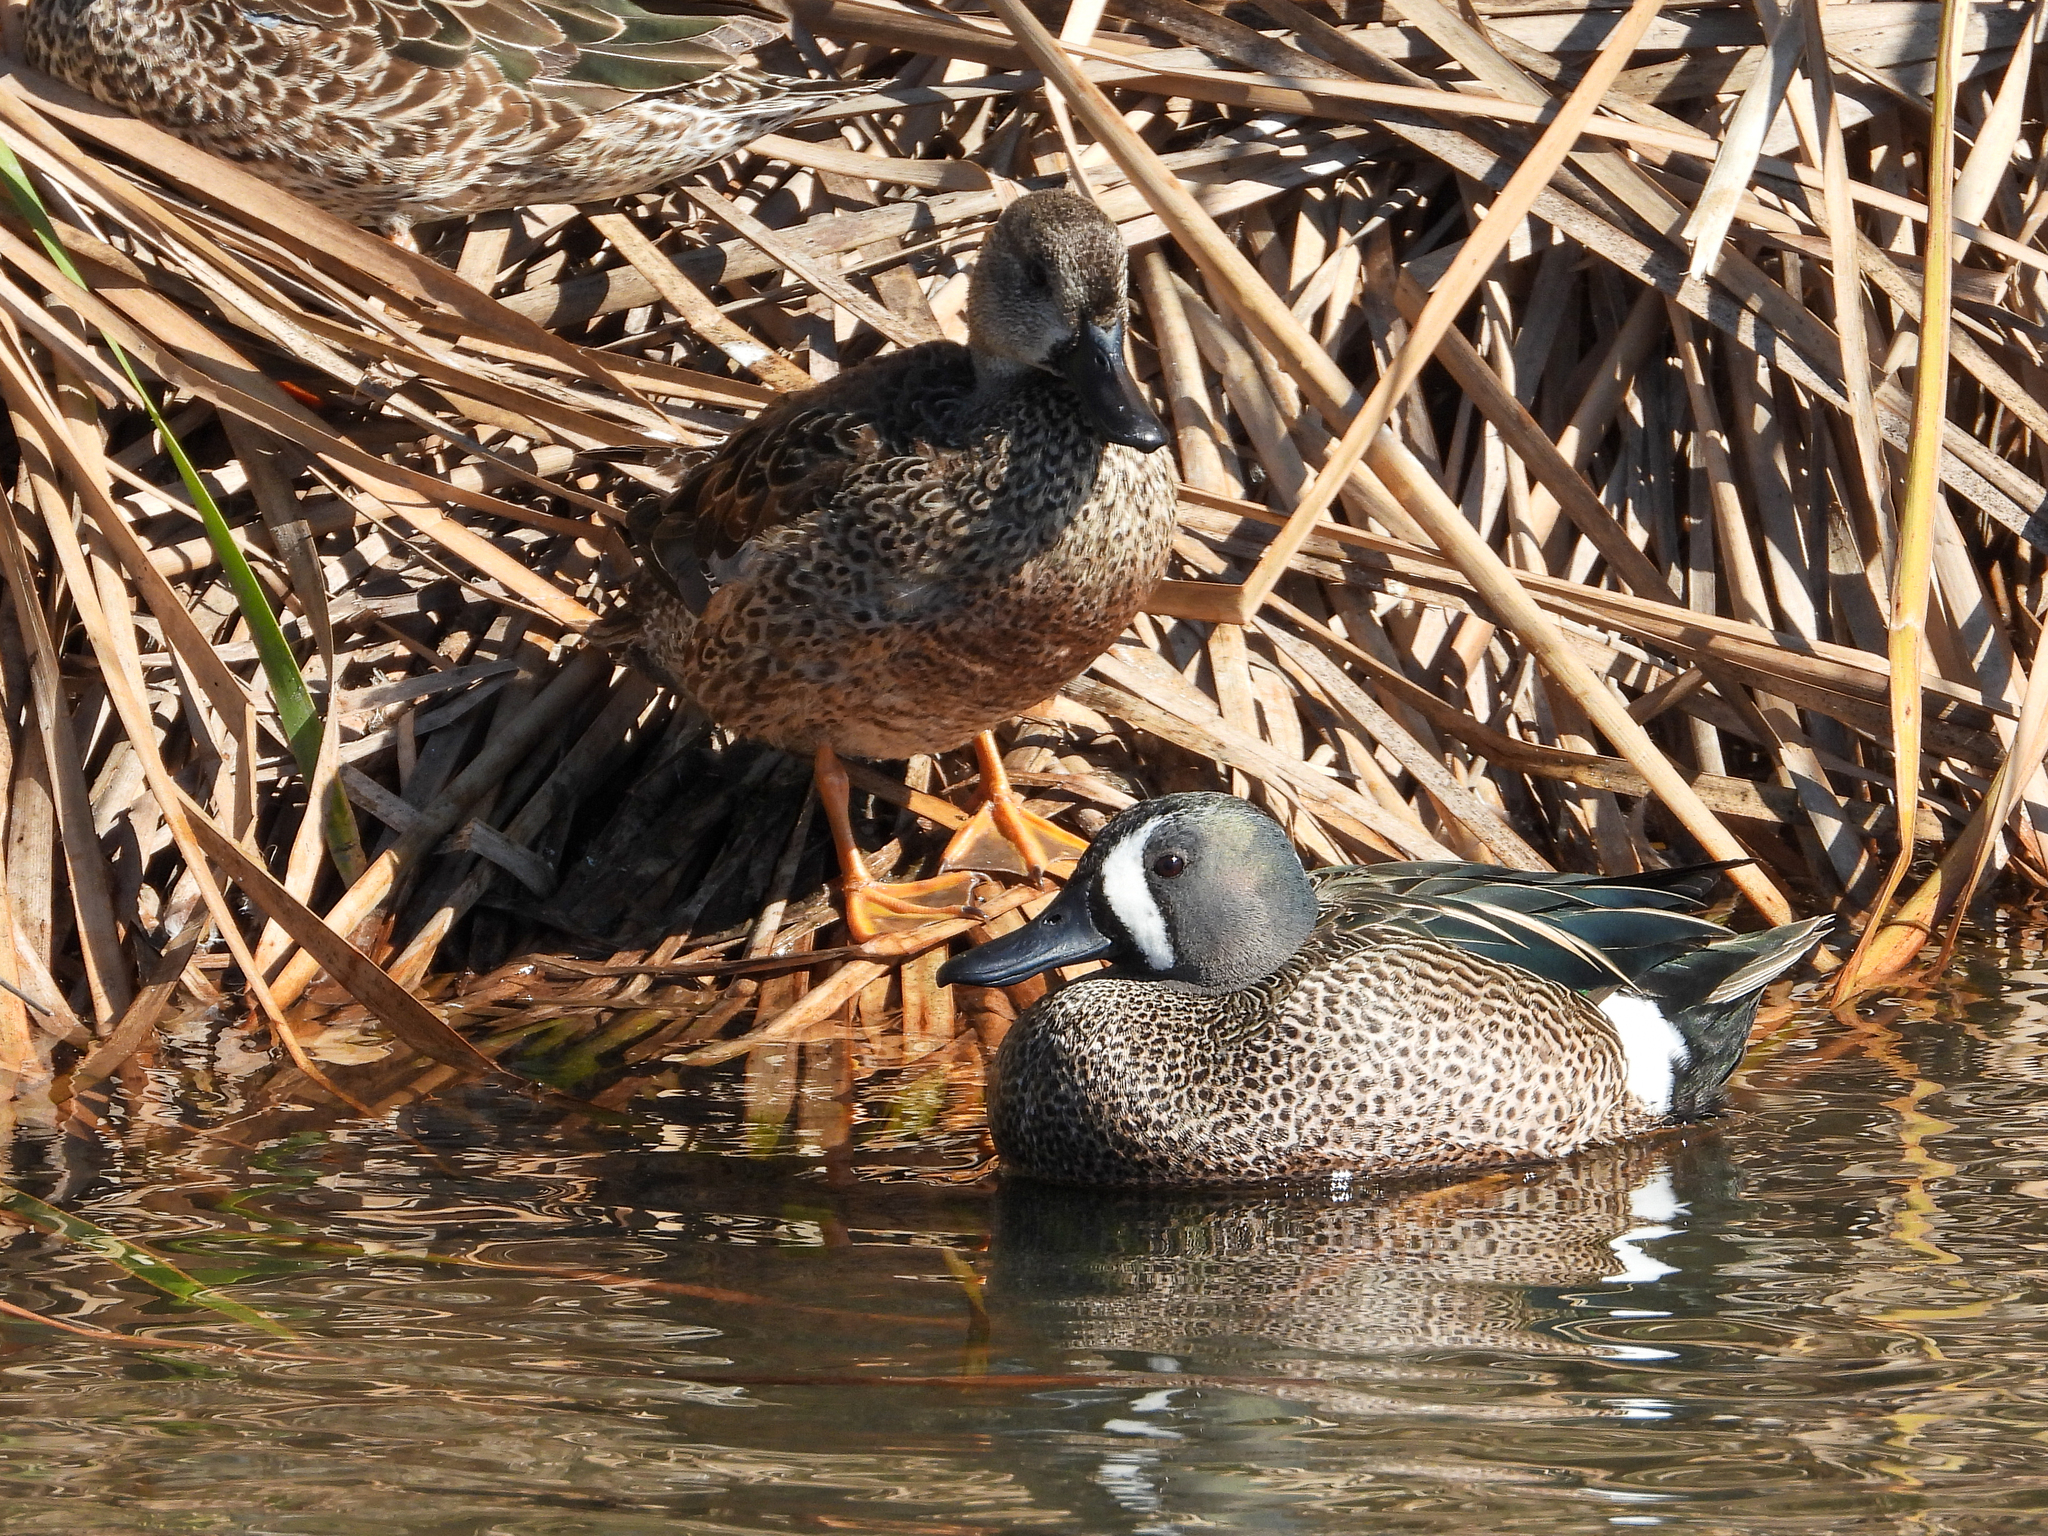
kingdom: Animalia
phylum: Chordata
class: Aves
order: Anseriformes
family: Anatidae
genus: Spatula
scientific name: Spatula discors
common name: Blue-winged teal
